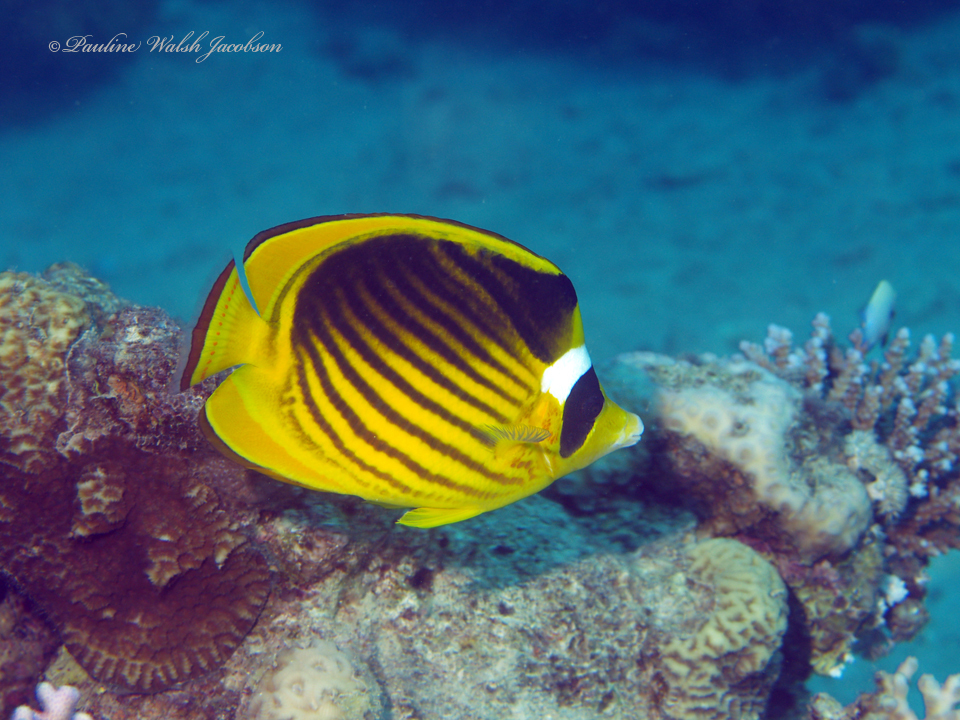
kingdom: Animalia
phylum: Chordata
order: Perciformes
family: Chaetodontidae
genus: Chaetodon
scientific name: Chaetodon fasciatus
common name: Diagonal butterflyfish
